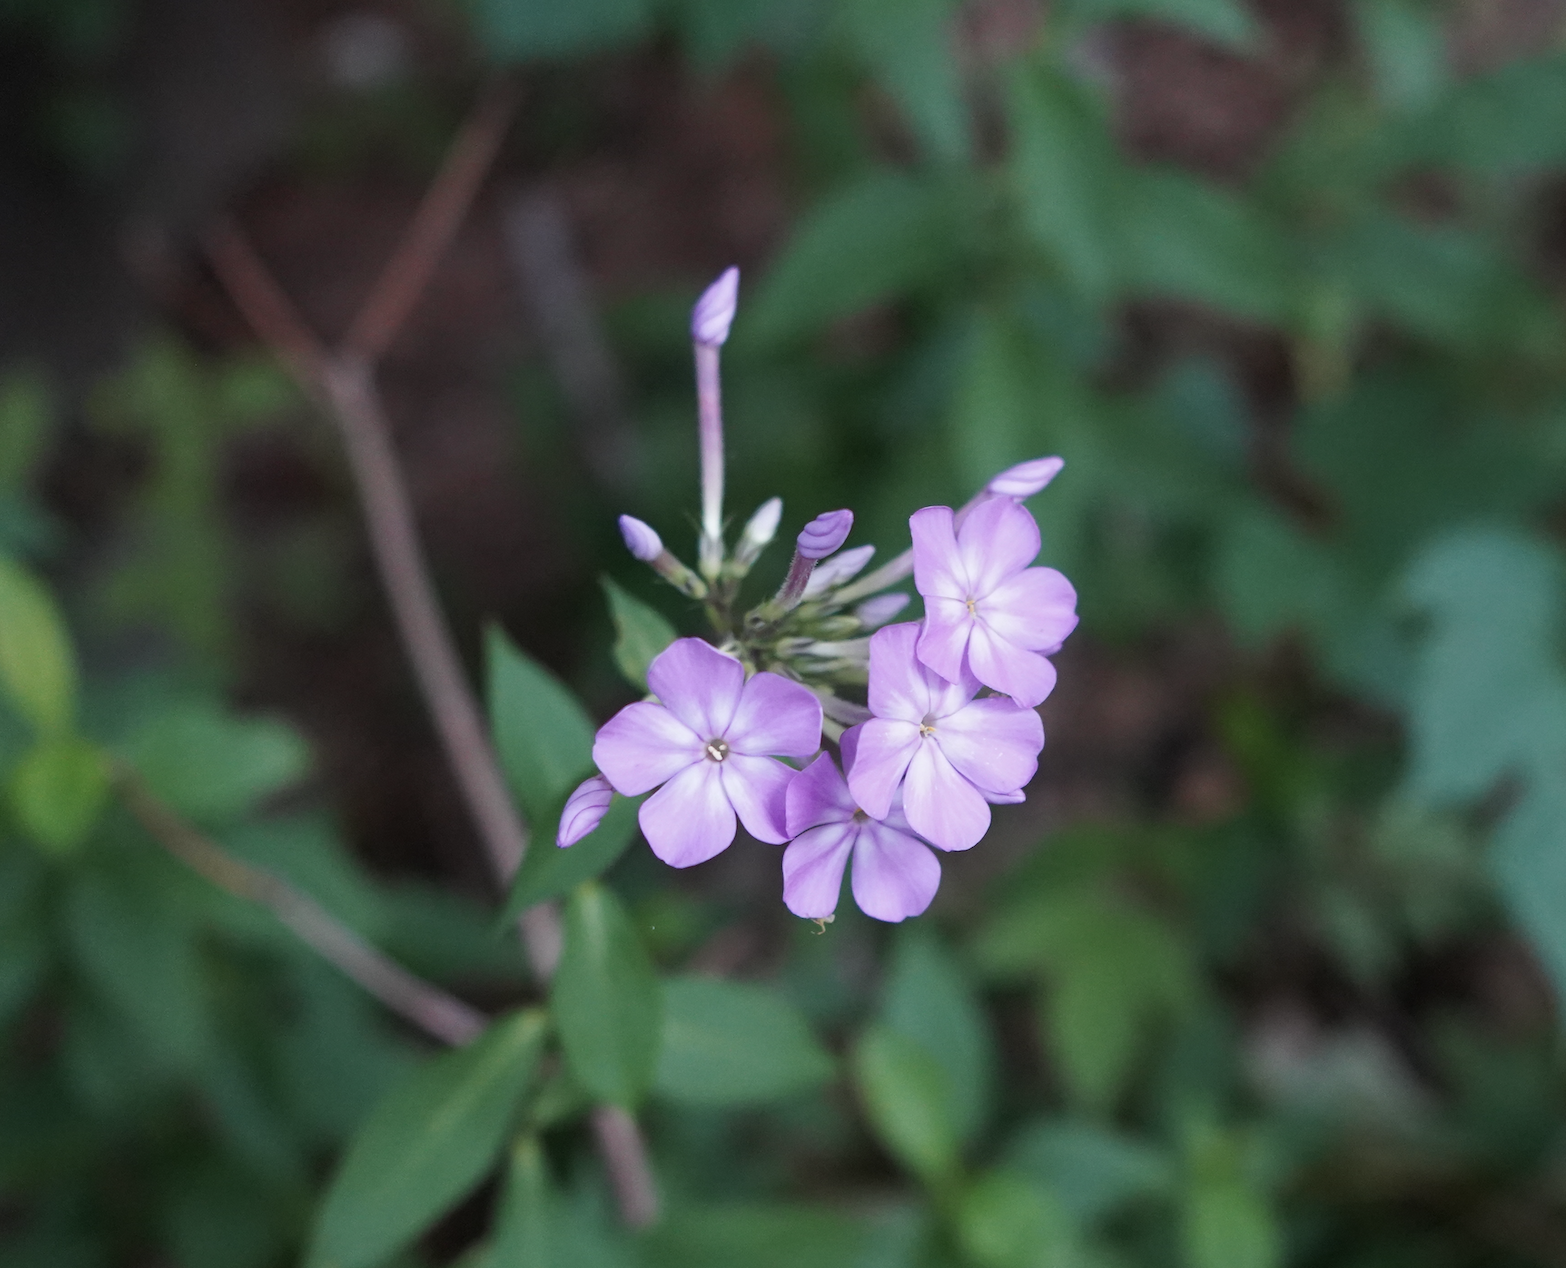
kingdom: Plantae
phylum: Tracheophyta
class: Magnoliopsida
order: Ericales
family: Polemoniaceae
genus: Phlox
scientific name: Phlox paniculata
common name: Fall phlox
